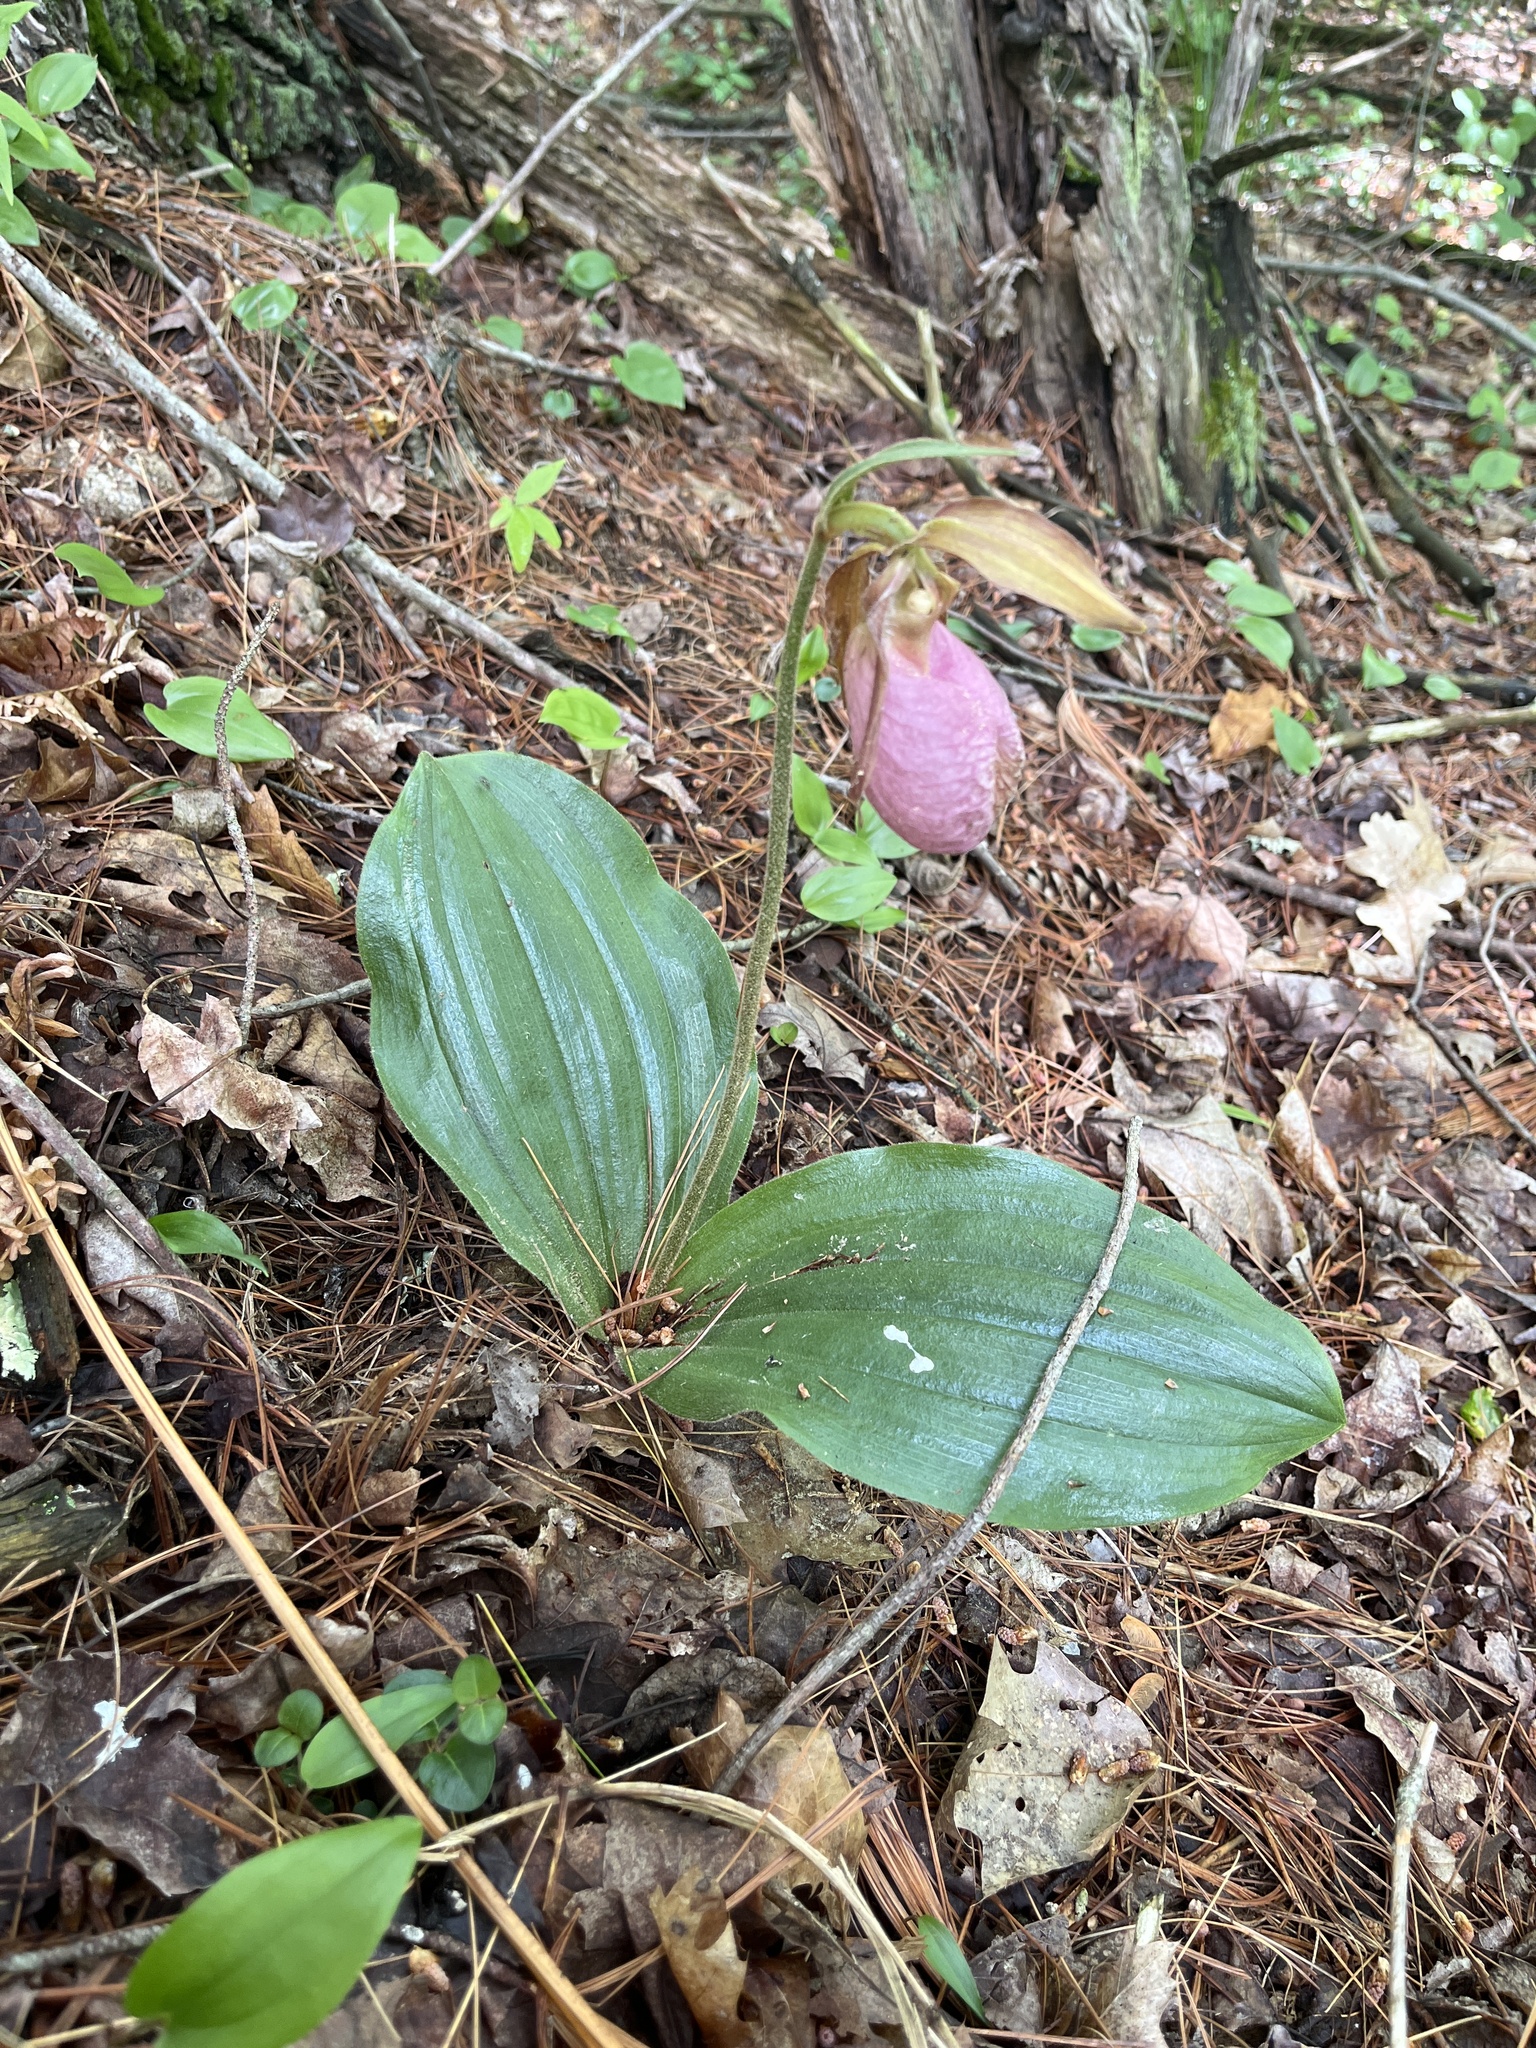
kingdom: Plantae
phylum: Tracheophyta
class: Liliopsida
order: Asparagales
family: Orchidaceae
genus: Cypripedium
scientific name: Cypripedium acaule
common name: Pink lady's-slipper
